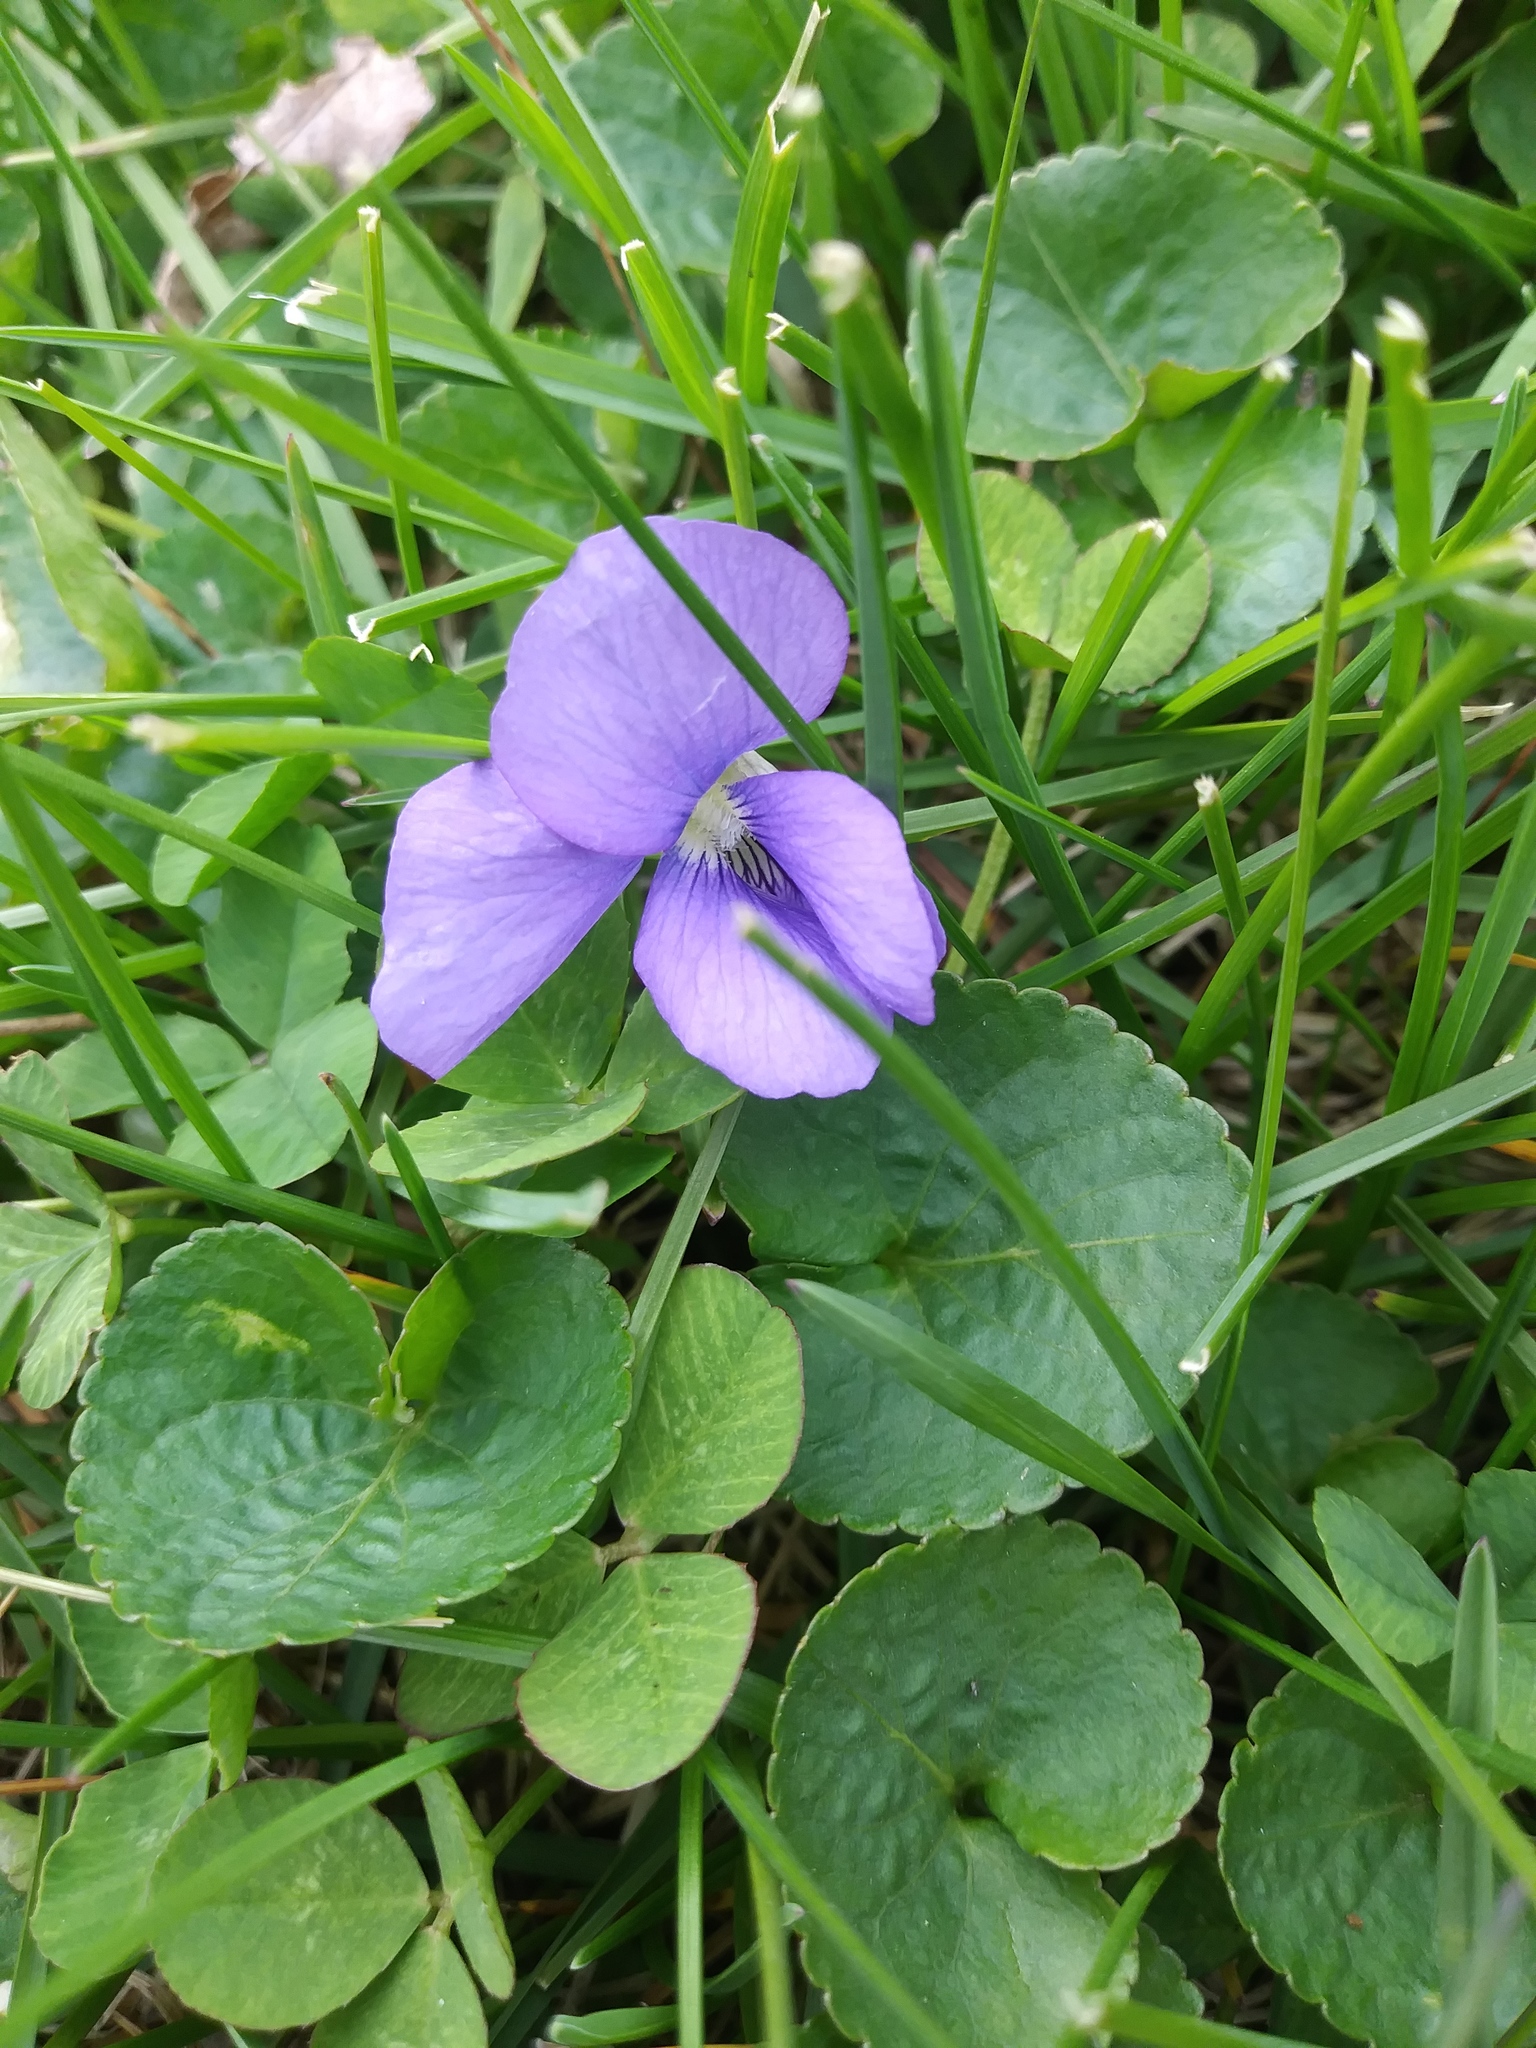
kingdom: Plantae
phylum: Tracheophyta
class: Magnoliopsida
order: Malpighiales
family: Violaceae
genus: Viola
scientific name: Viola sororia
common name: Dooryard violet
